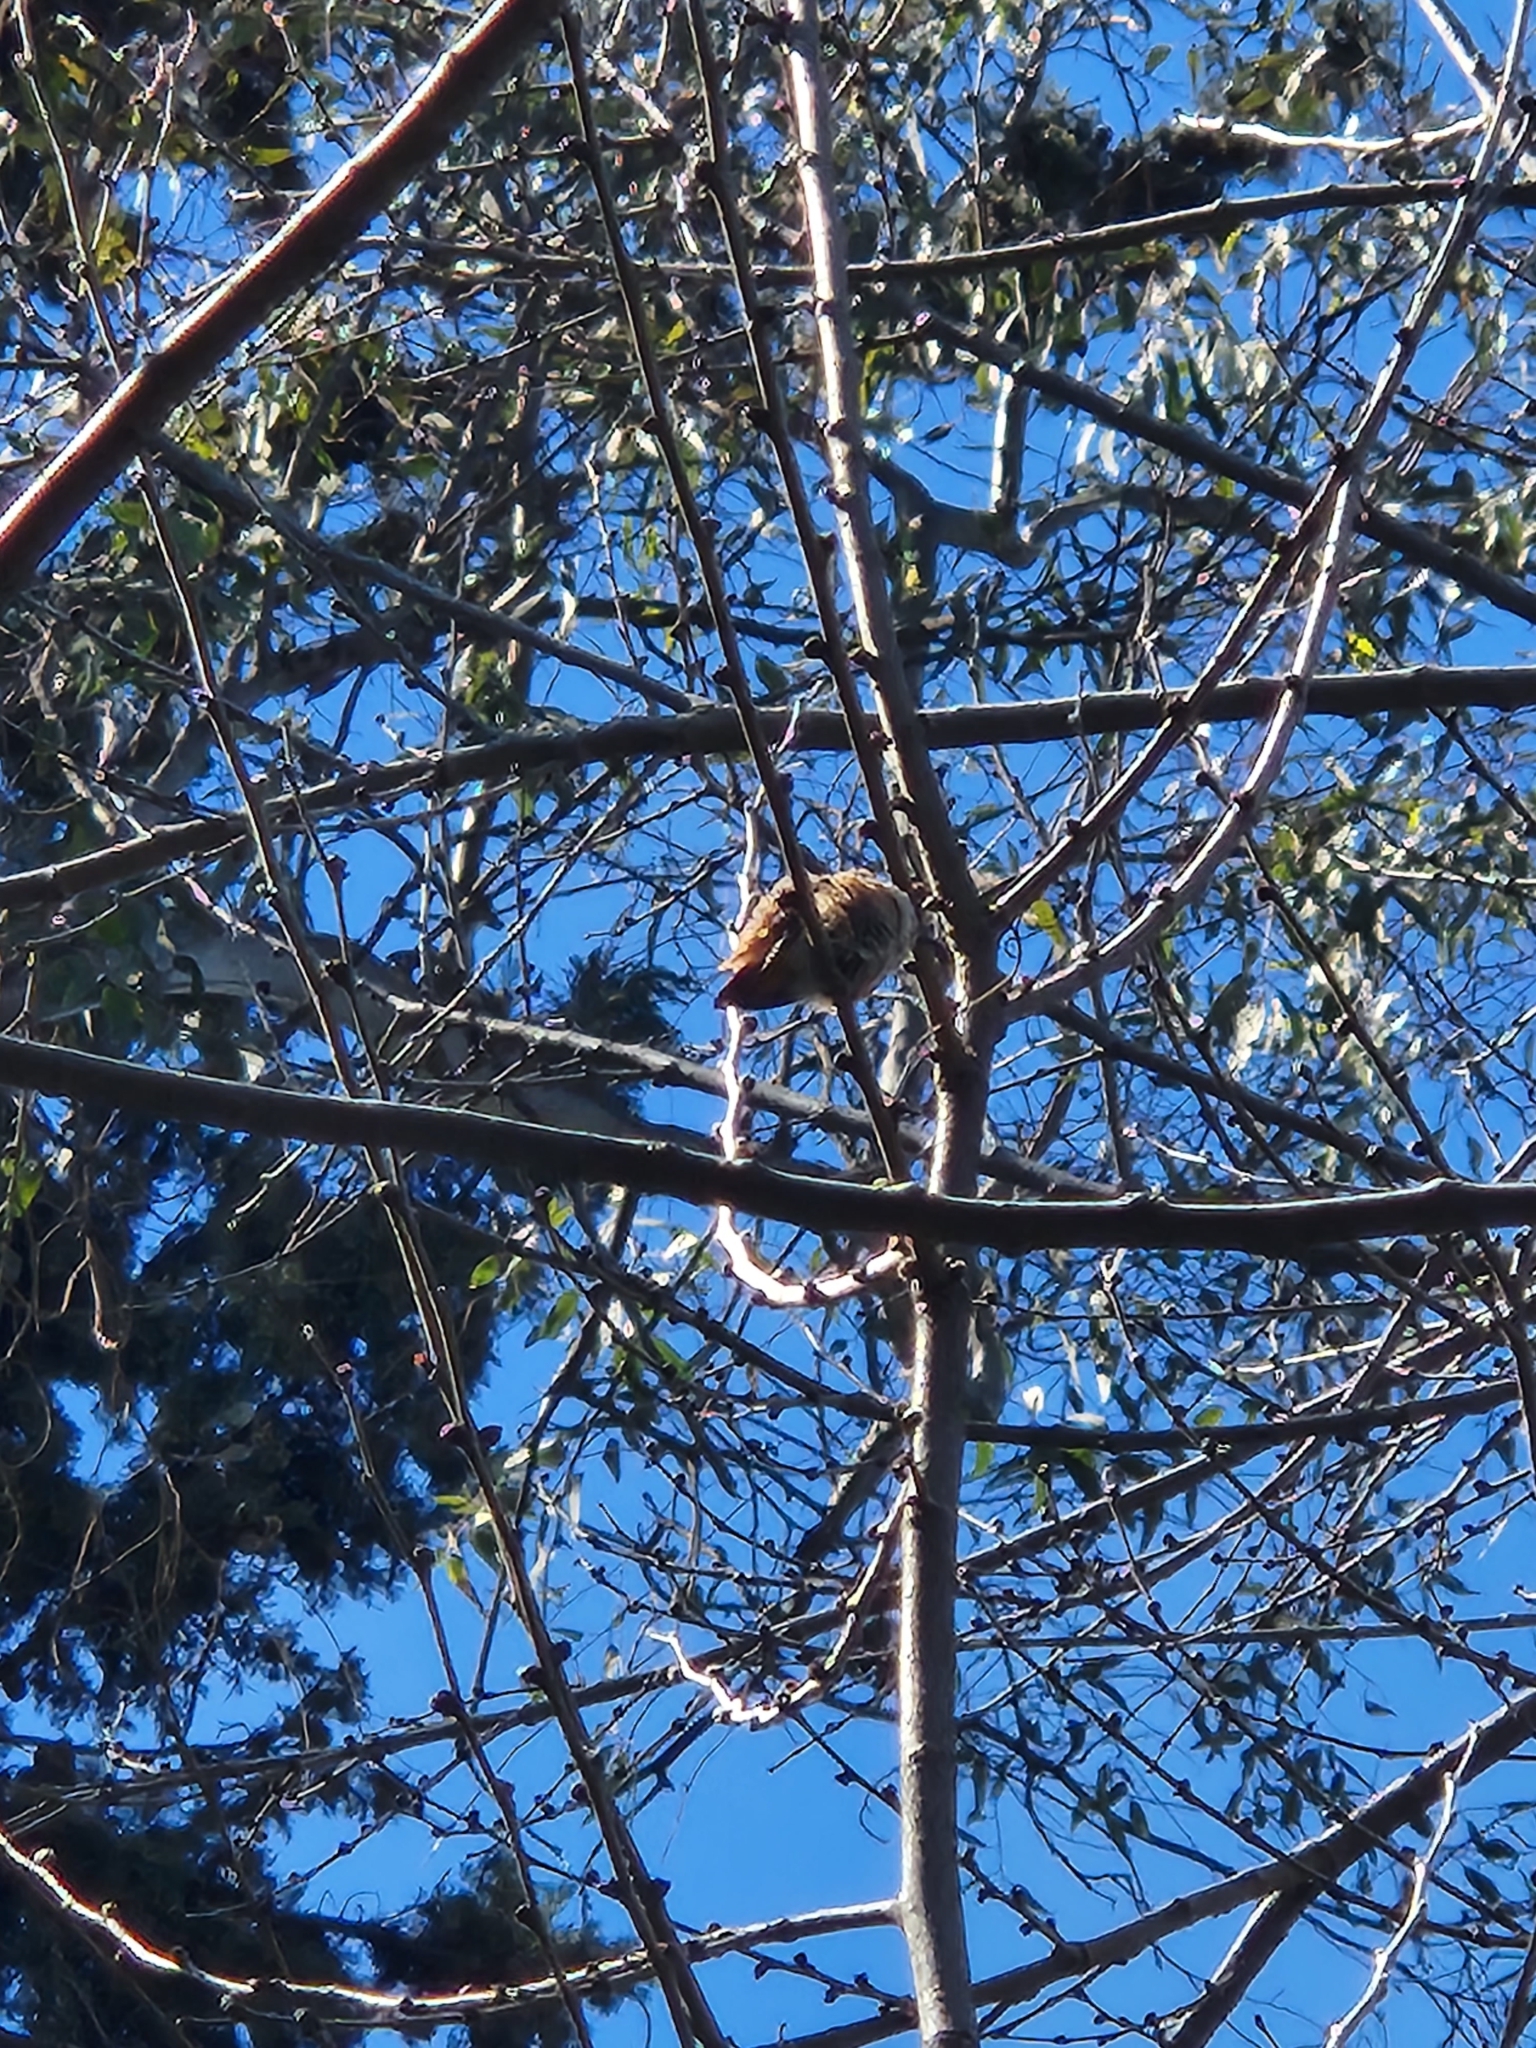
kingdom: Animalia
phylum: Chordata
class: Aves
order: Apodiformes
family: Trochilidae
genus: Selasphorus
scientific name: Selasphorus
